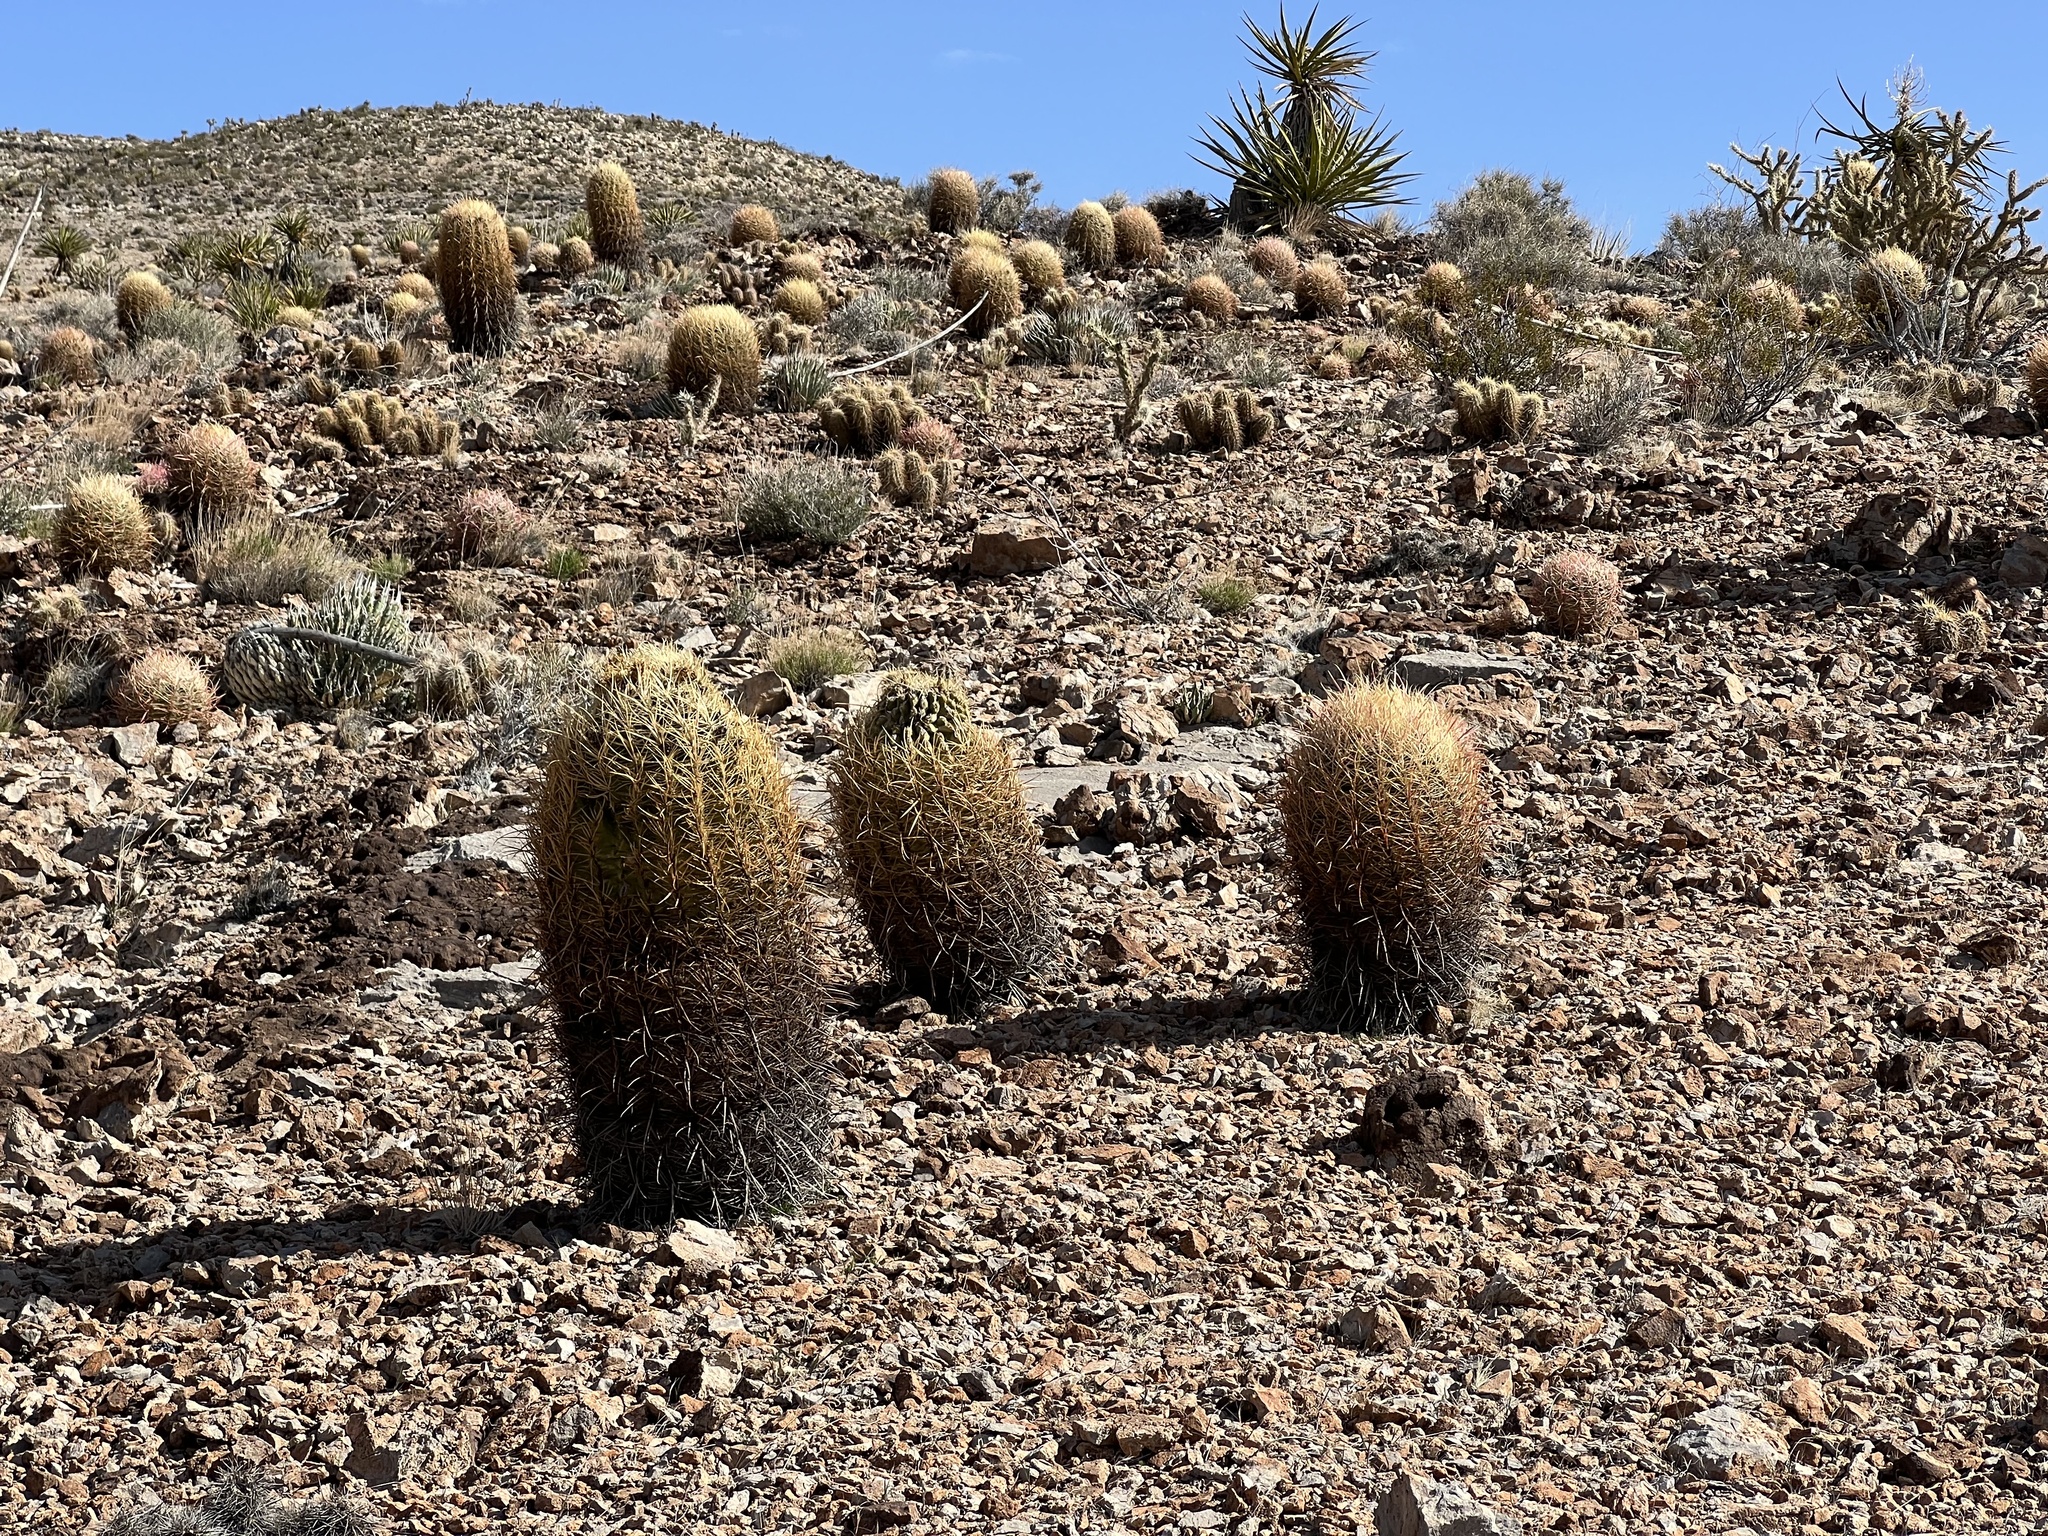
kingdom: Plantae
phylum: Tracheophyta
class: Magnoliopsida
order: Caryophyllales
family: Cactaceae
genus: Ferocactus
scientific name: Ferocactus cylindraceus
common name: California barrel cactus
